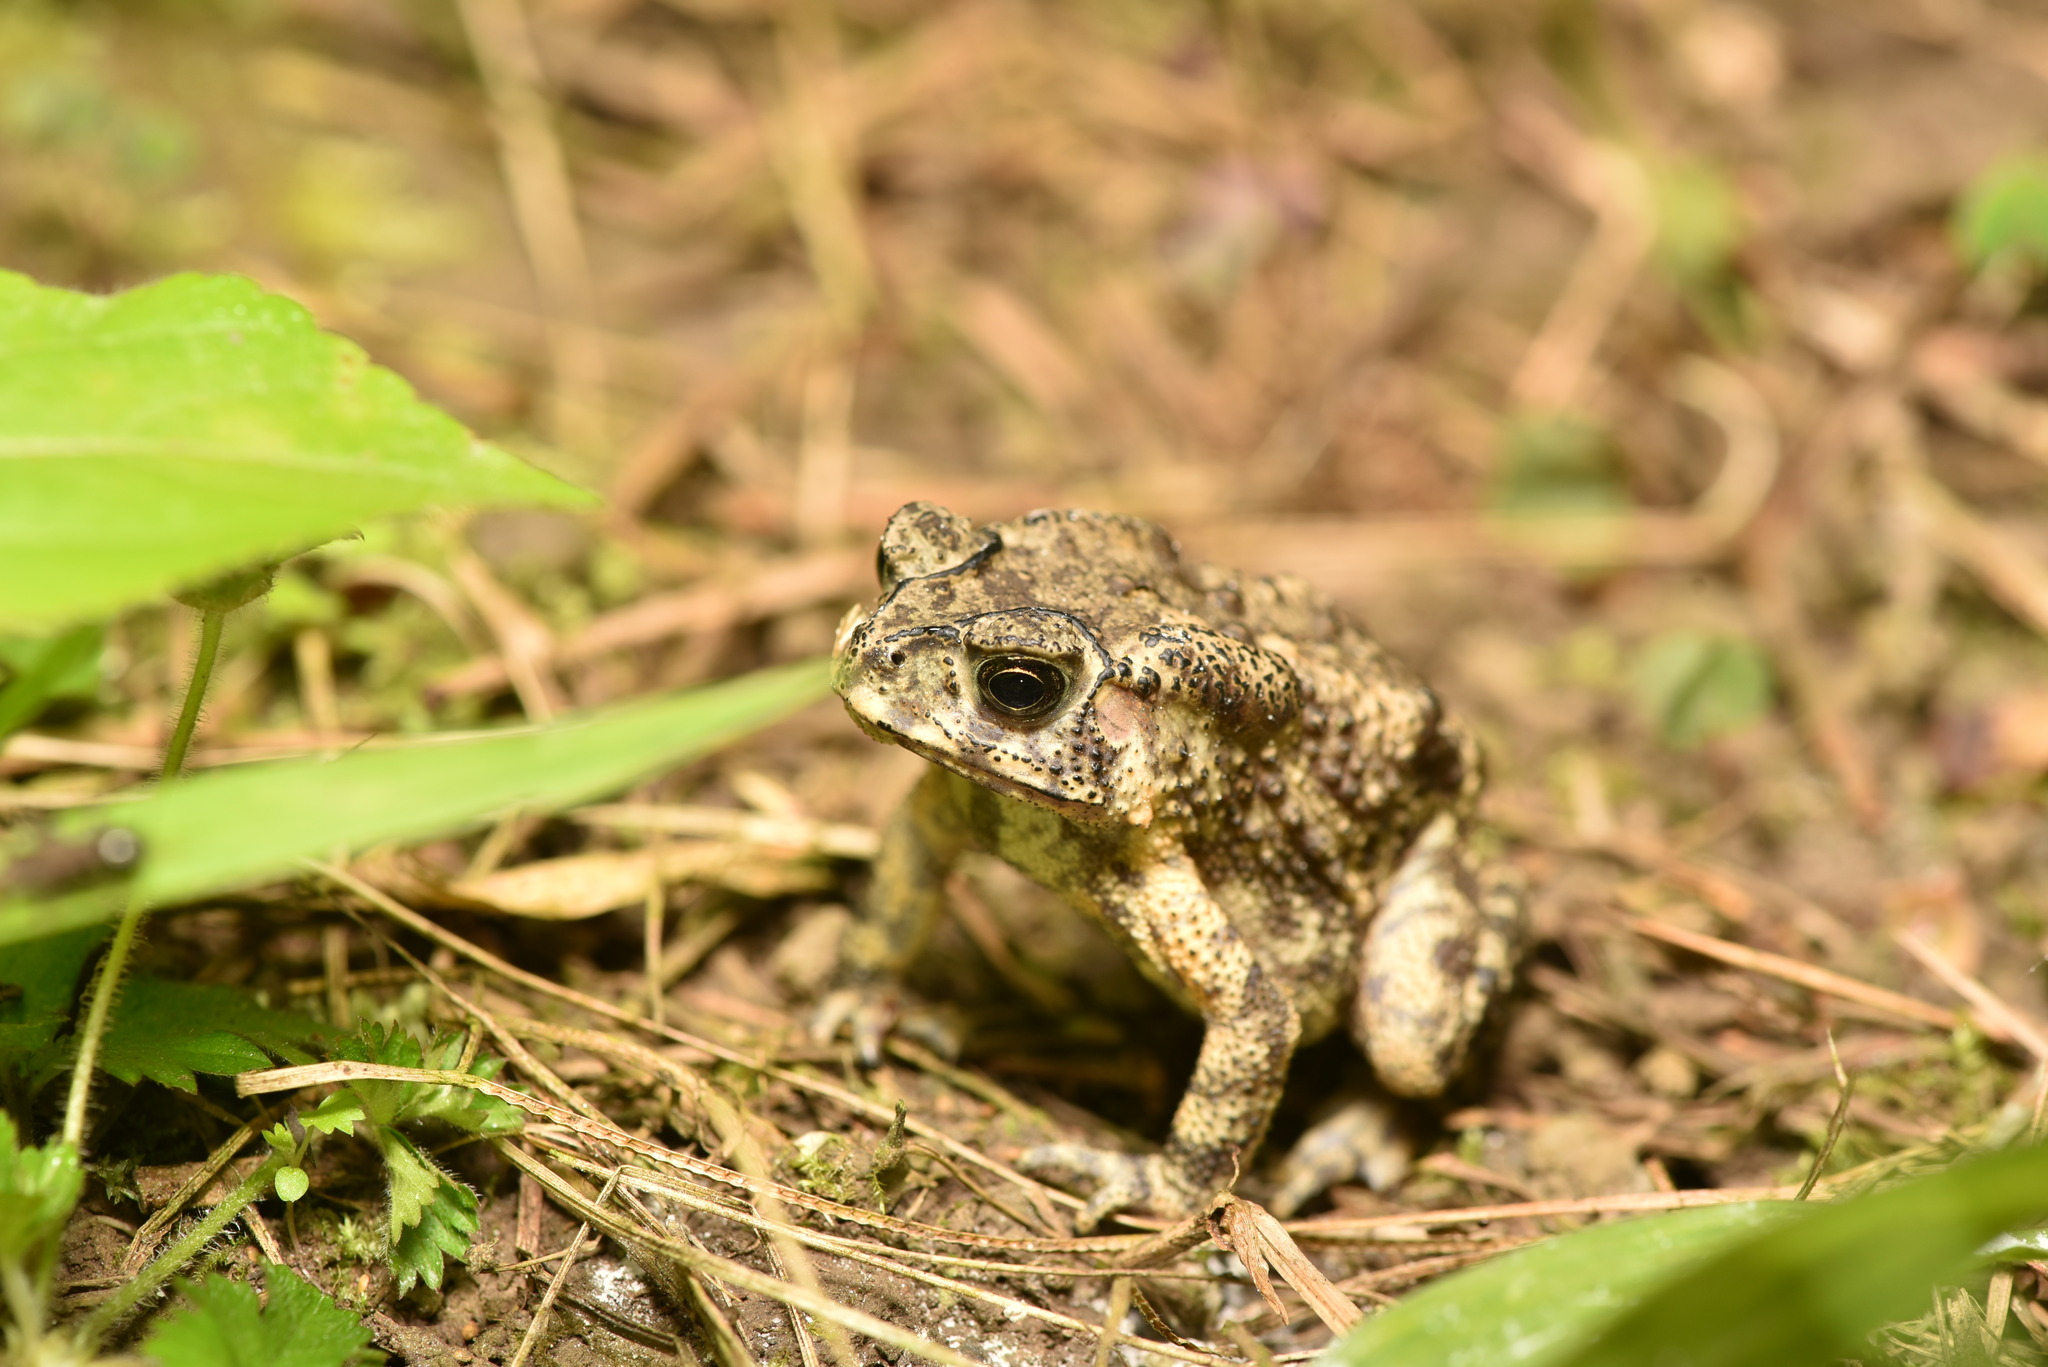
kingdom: Animalia
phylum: Chordata
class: Amphibia
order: Anura
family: Bufonidae
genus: Duttaphrynus
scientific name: Duttaphrynus melanostictus
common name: Common sunda toad
